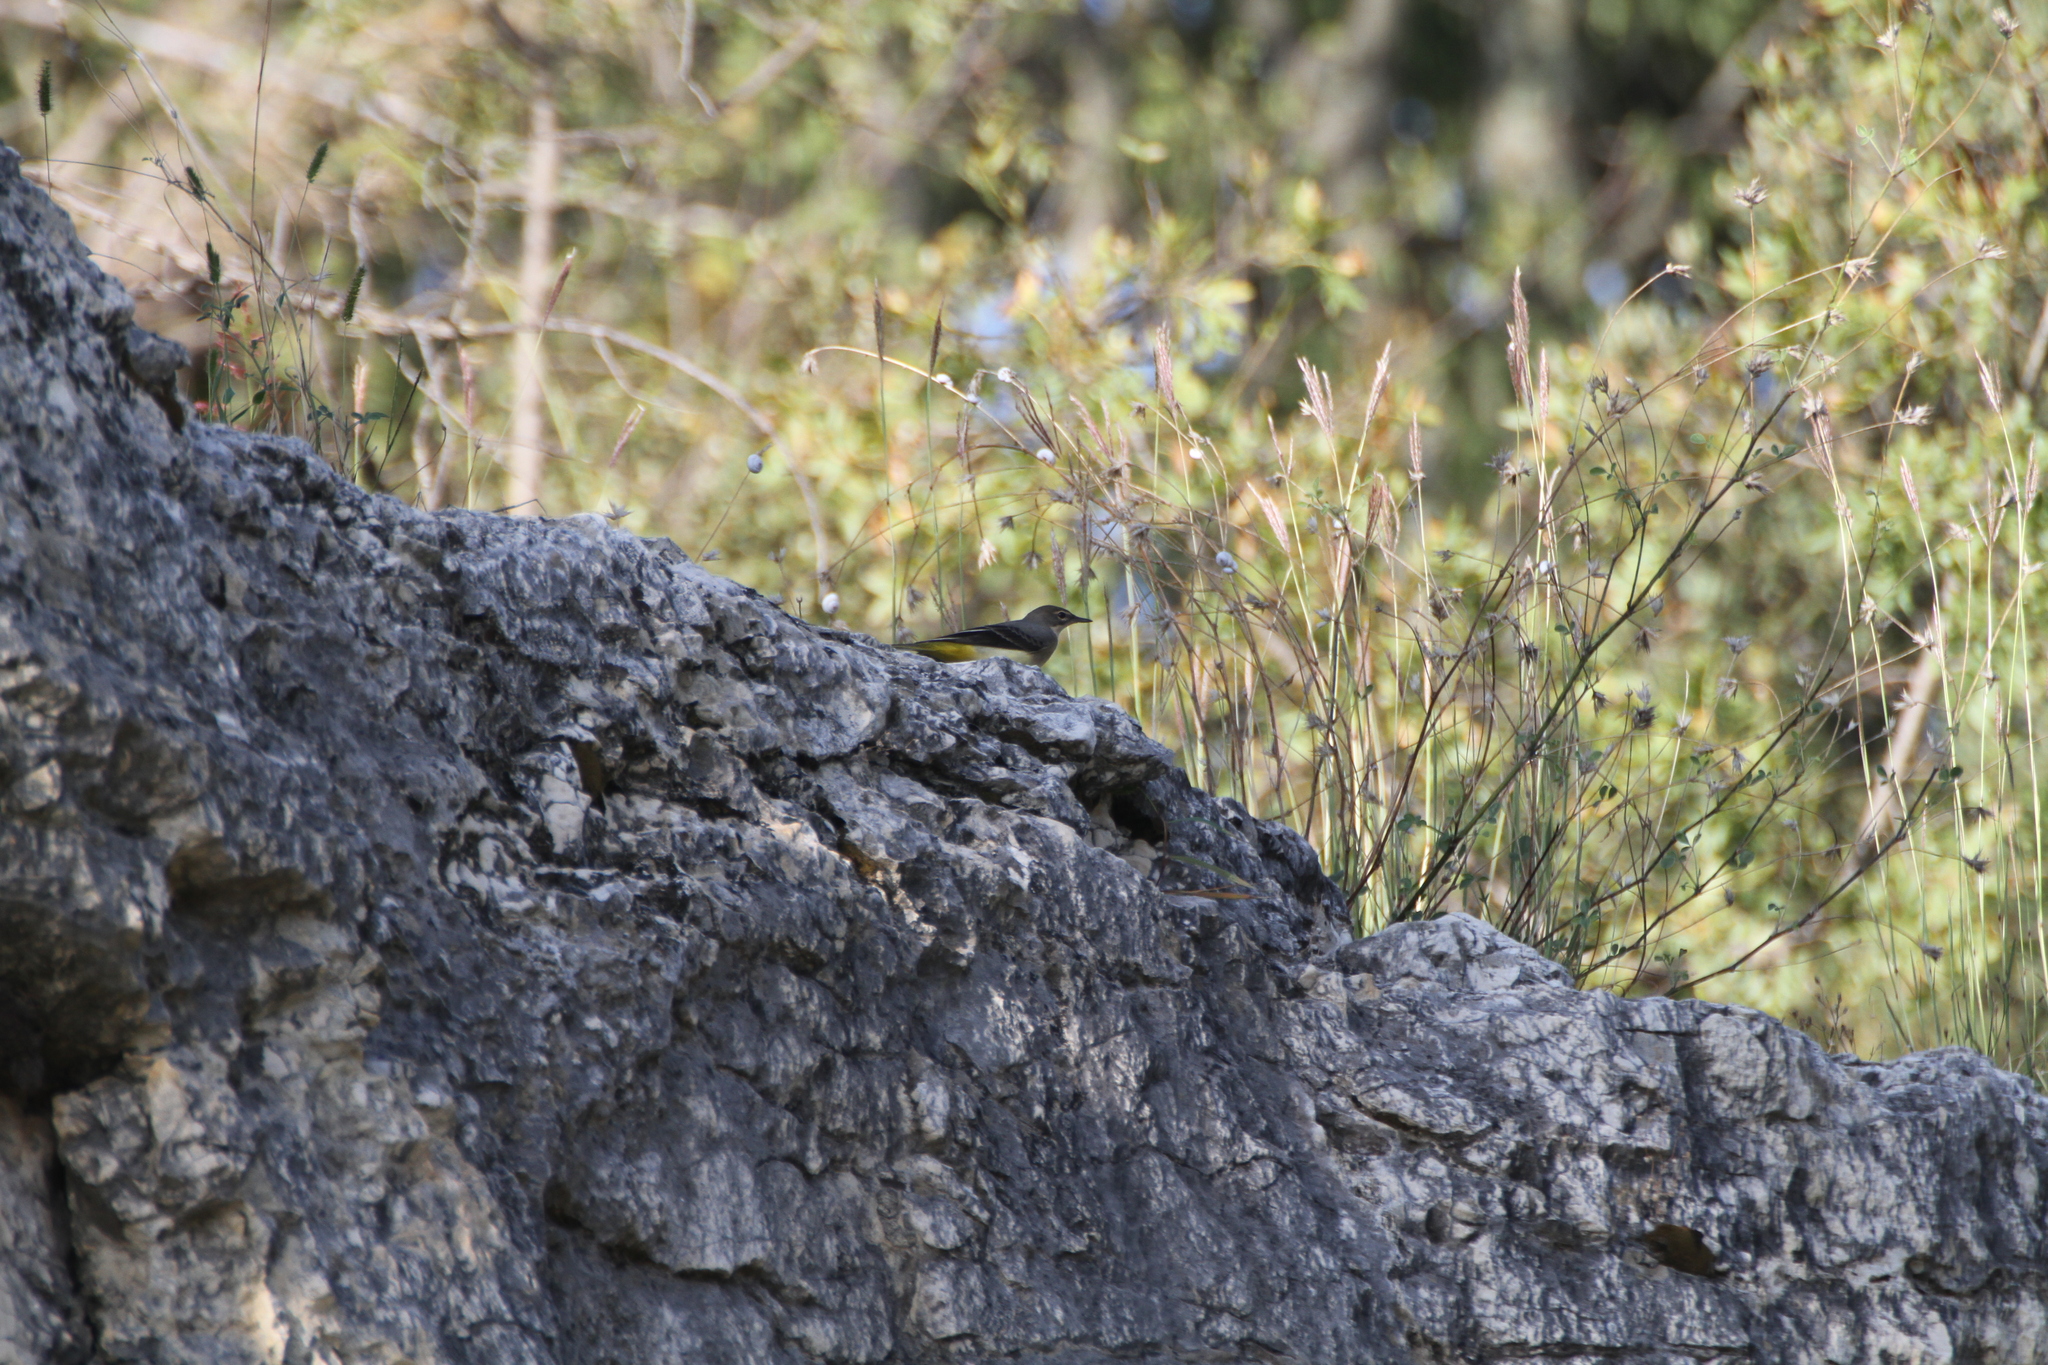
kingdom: Animalia
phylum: Chordata
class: Aves
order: Passeriformes
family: Motacillidae
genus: Motacilla
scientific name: Motacilla cinerea
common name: Grey wagtail
